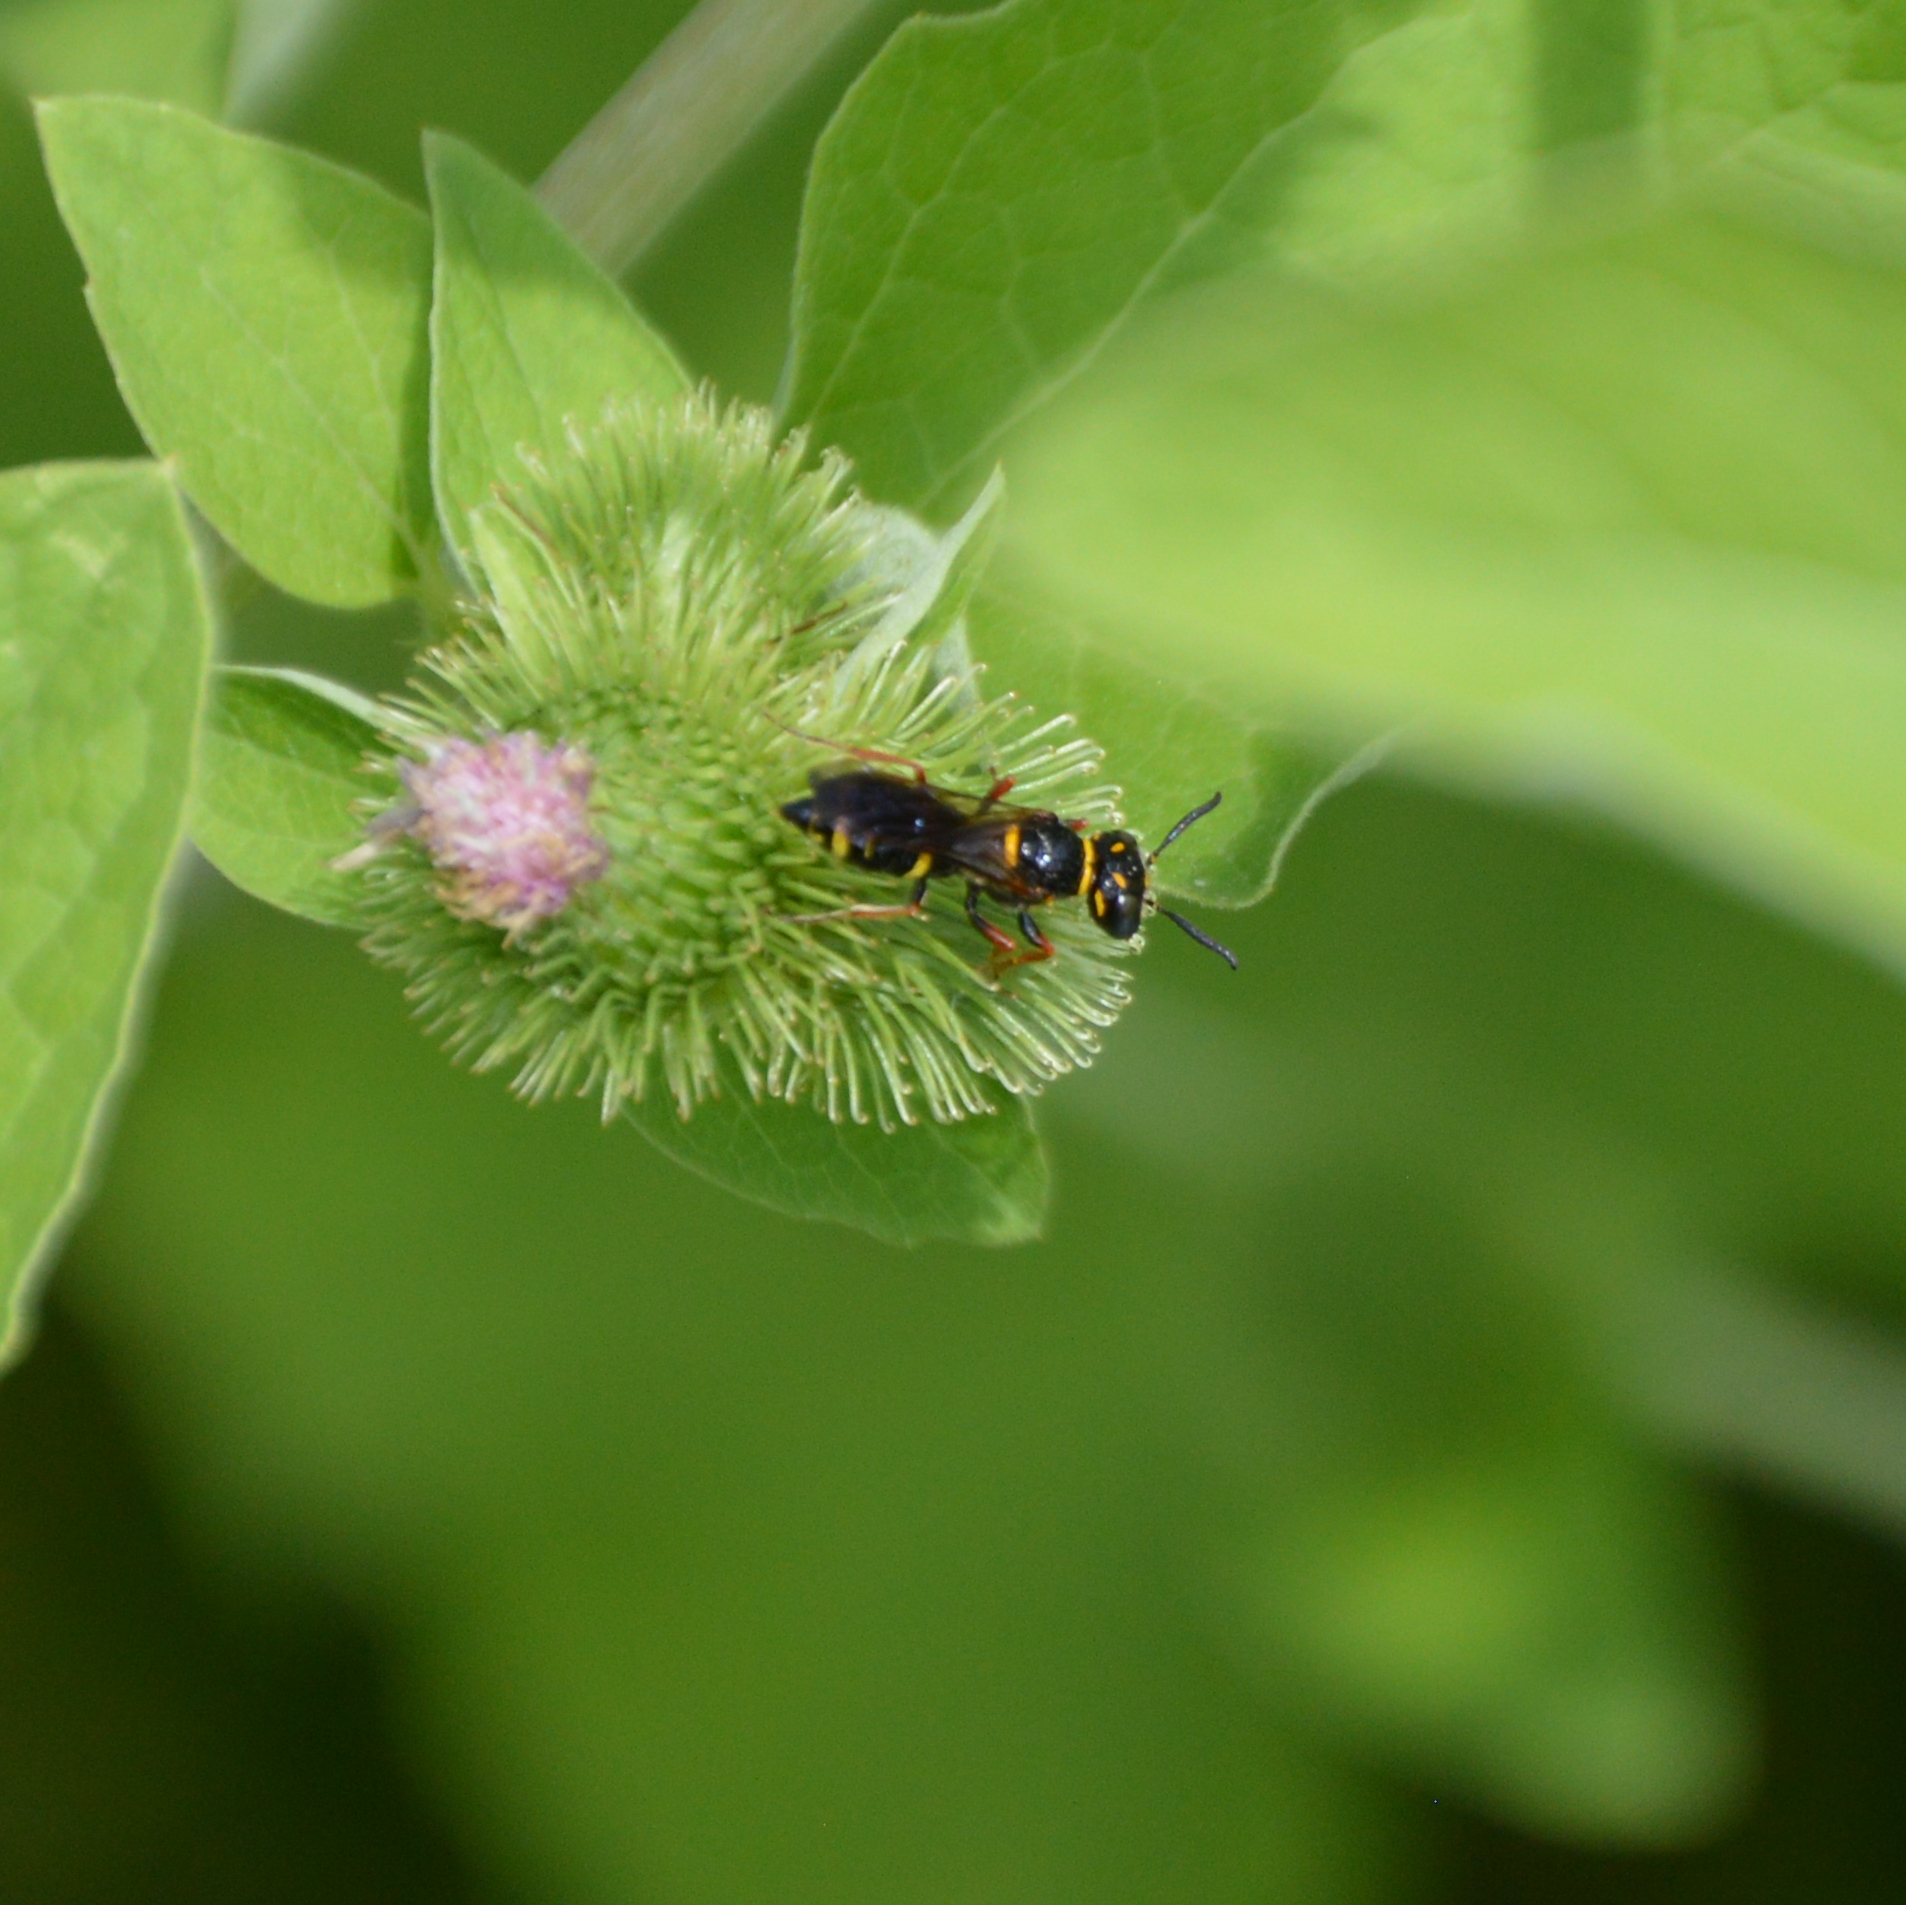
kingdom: Animalia
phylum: Arthropoda
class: Insecta
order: Hymenoptera
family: Crabronidae
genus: Philanthus
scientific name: Philanthus gibbosus
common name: Humped beewolf
